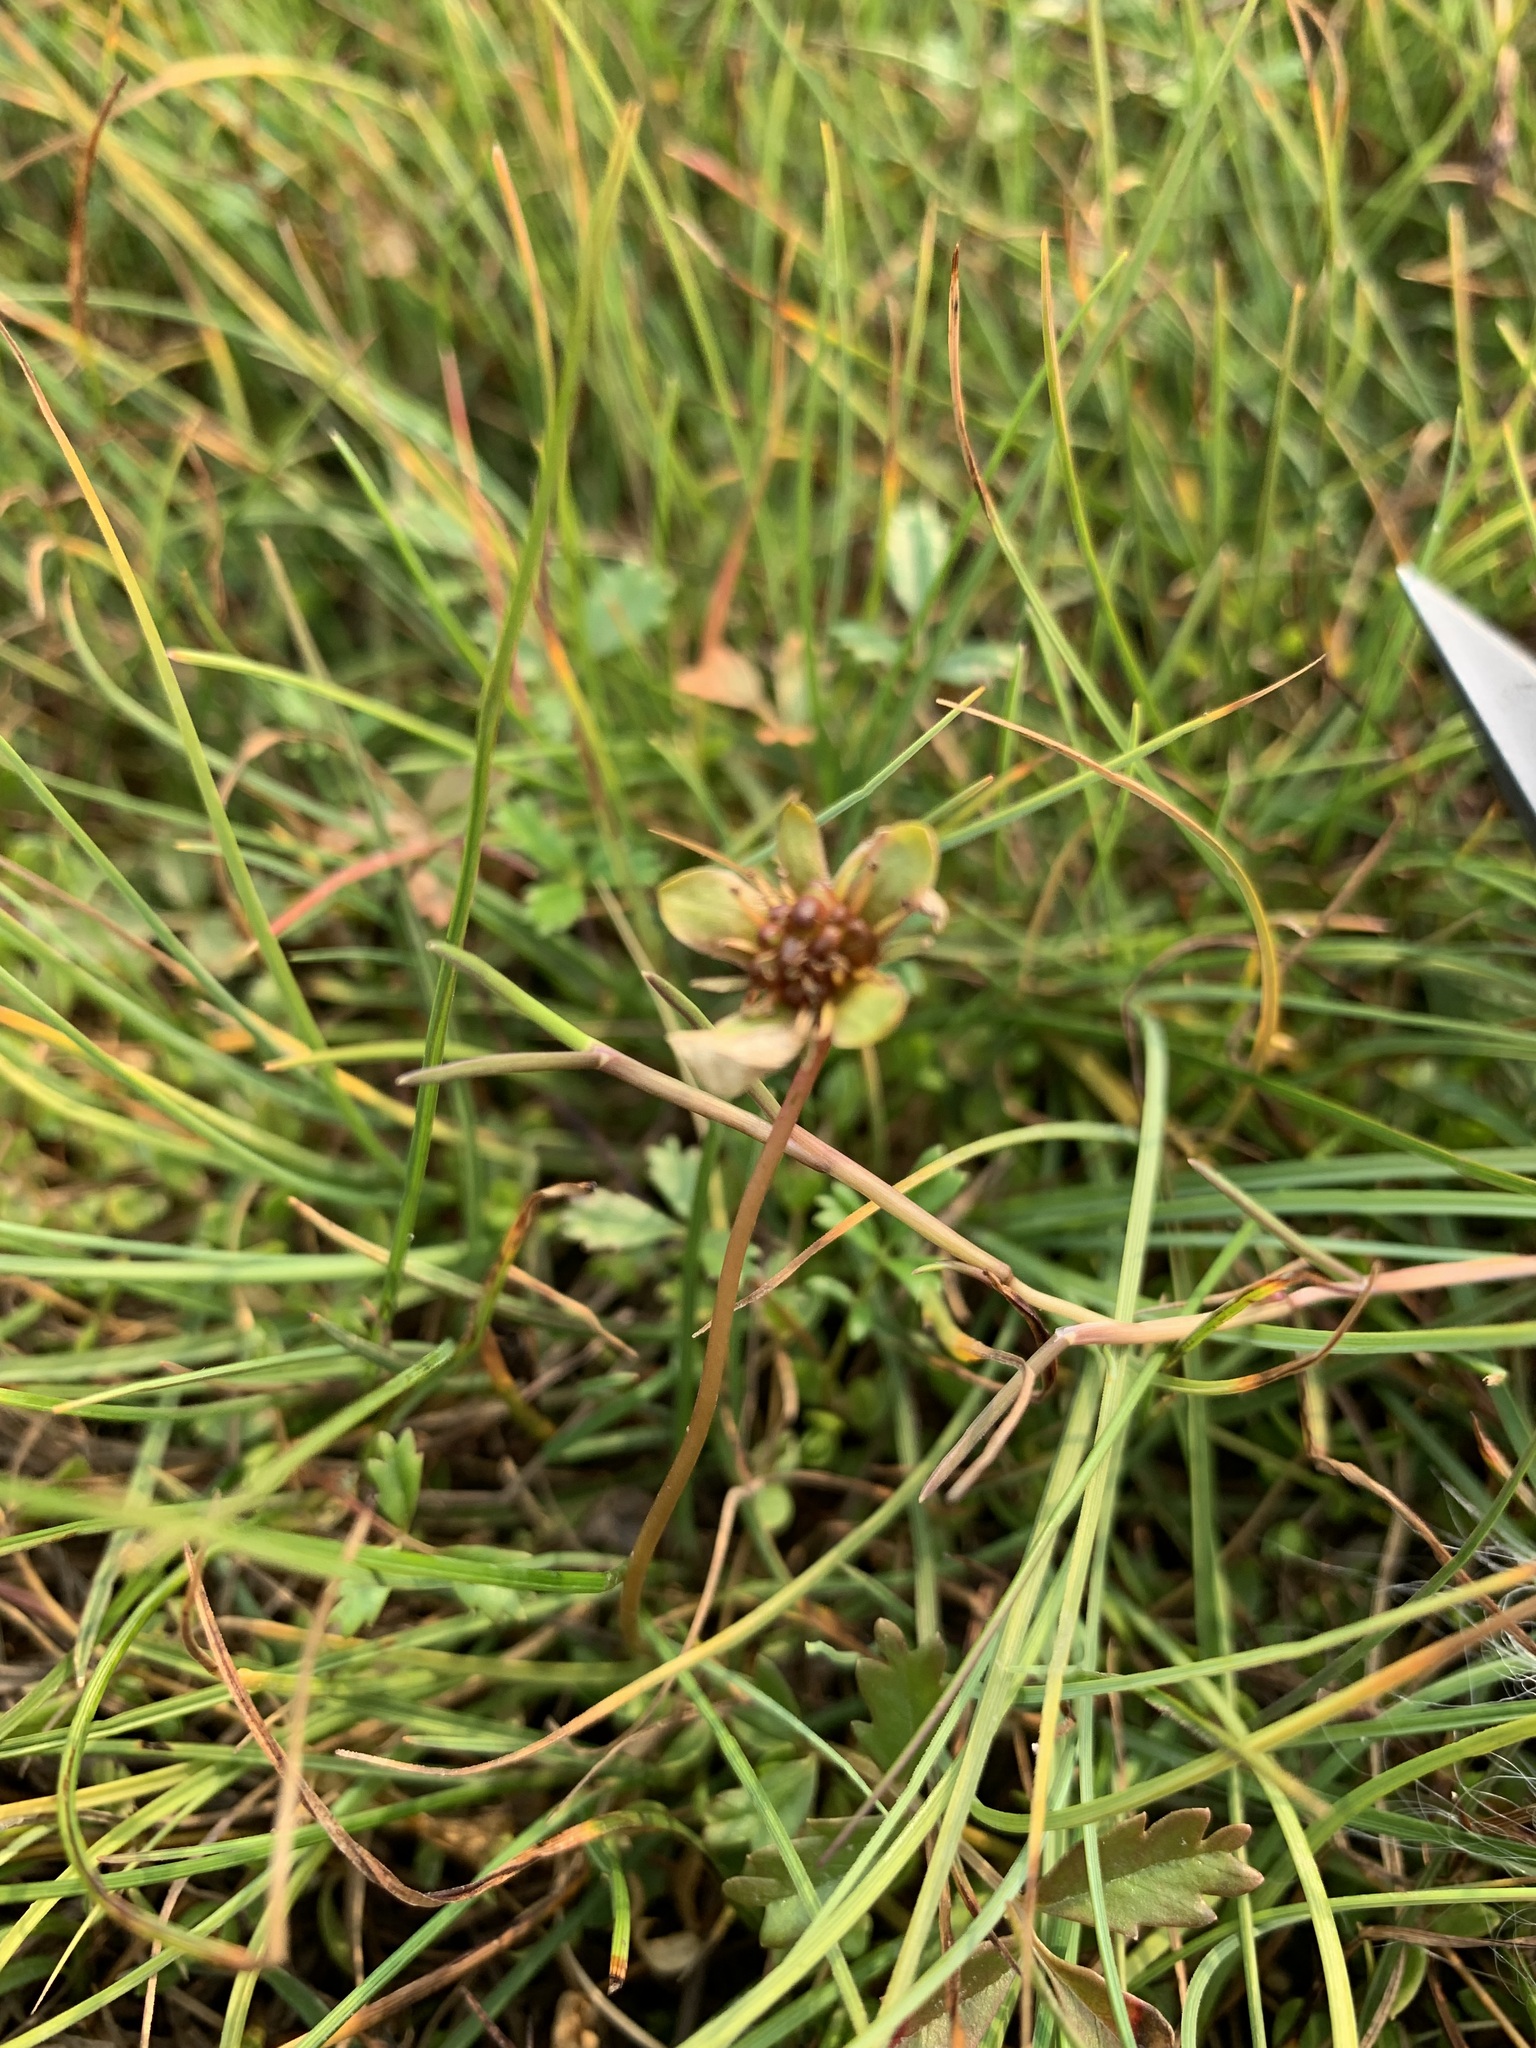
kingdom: Plantae
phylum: Tracheophyta
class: Magnoliopsida
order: Rosales
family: Rosaceae
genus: Argentina
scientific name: Argentina anserina
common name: Common silverweed
